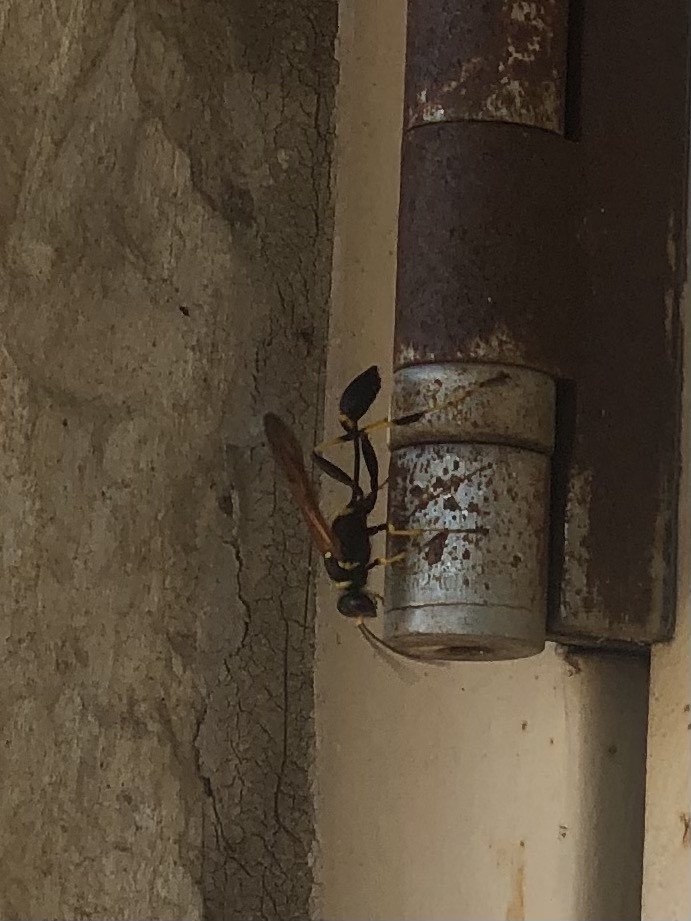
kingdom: Animalia
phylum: Arthropoda
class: Insecta
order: Hymenoptera
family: Sphecidae
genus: Sceliphron
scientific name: Sceliphron caementarium
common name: Mud dauber
